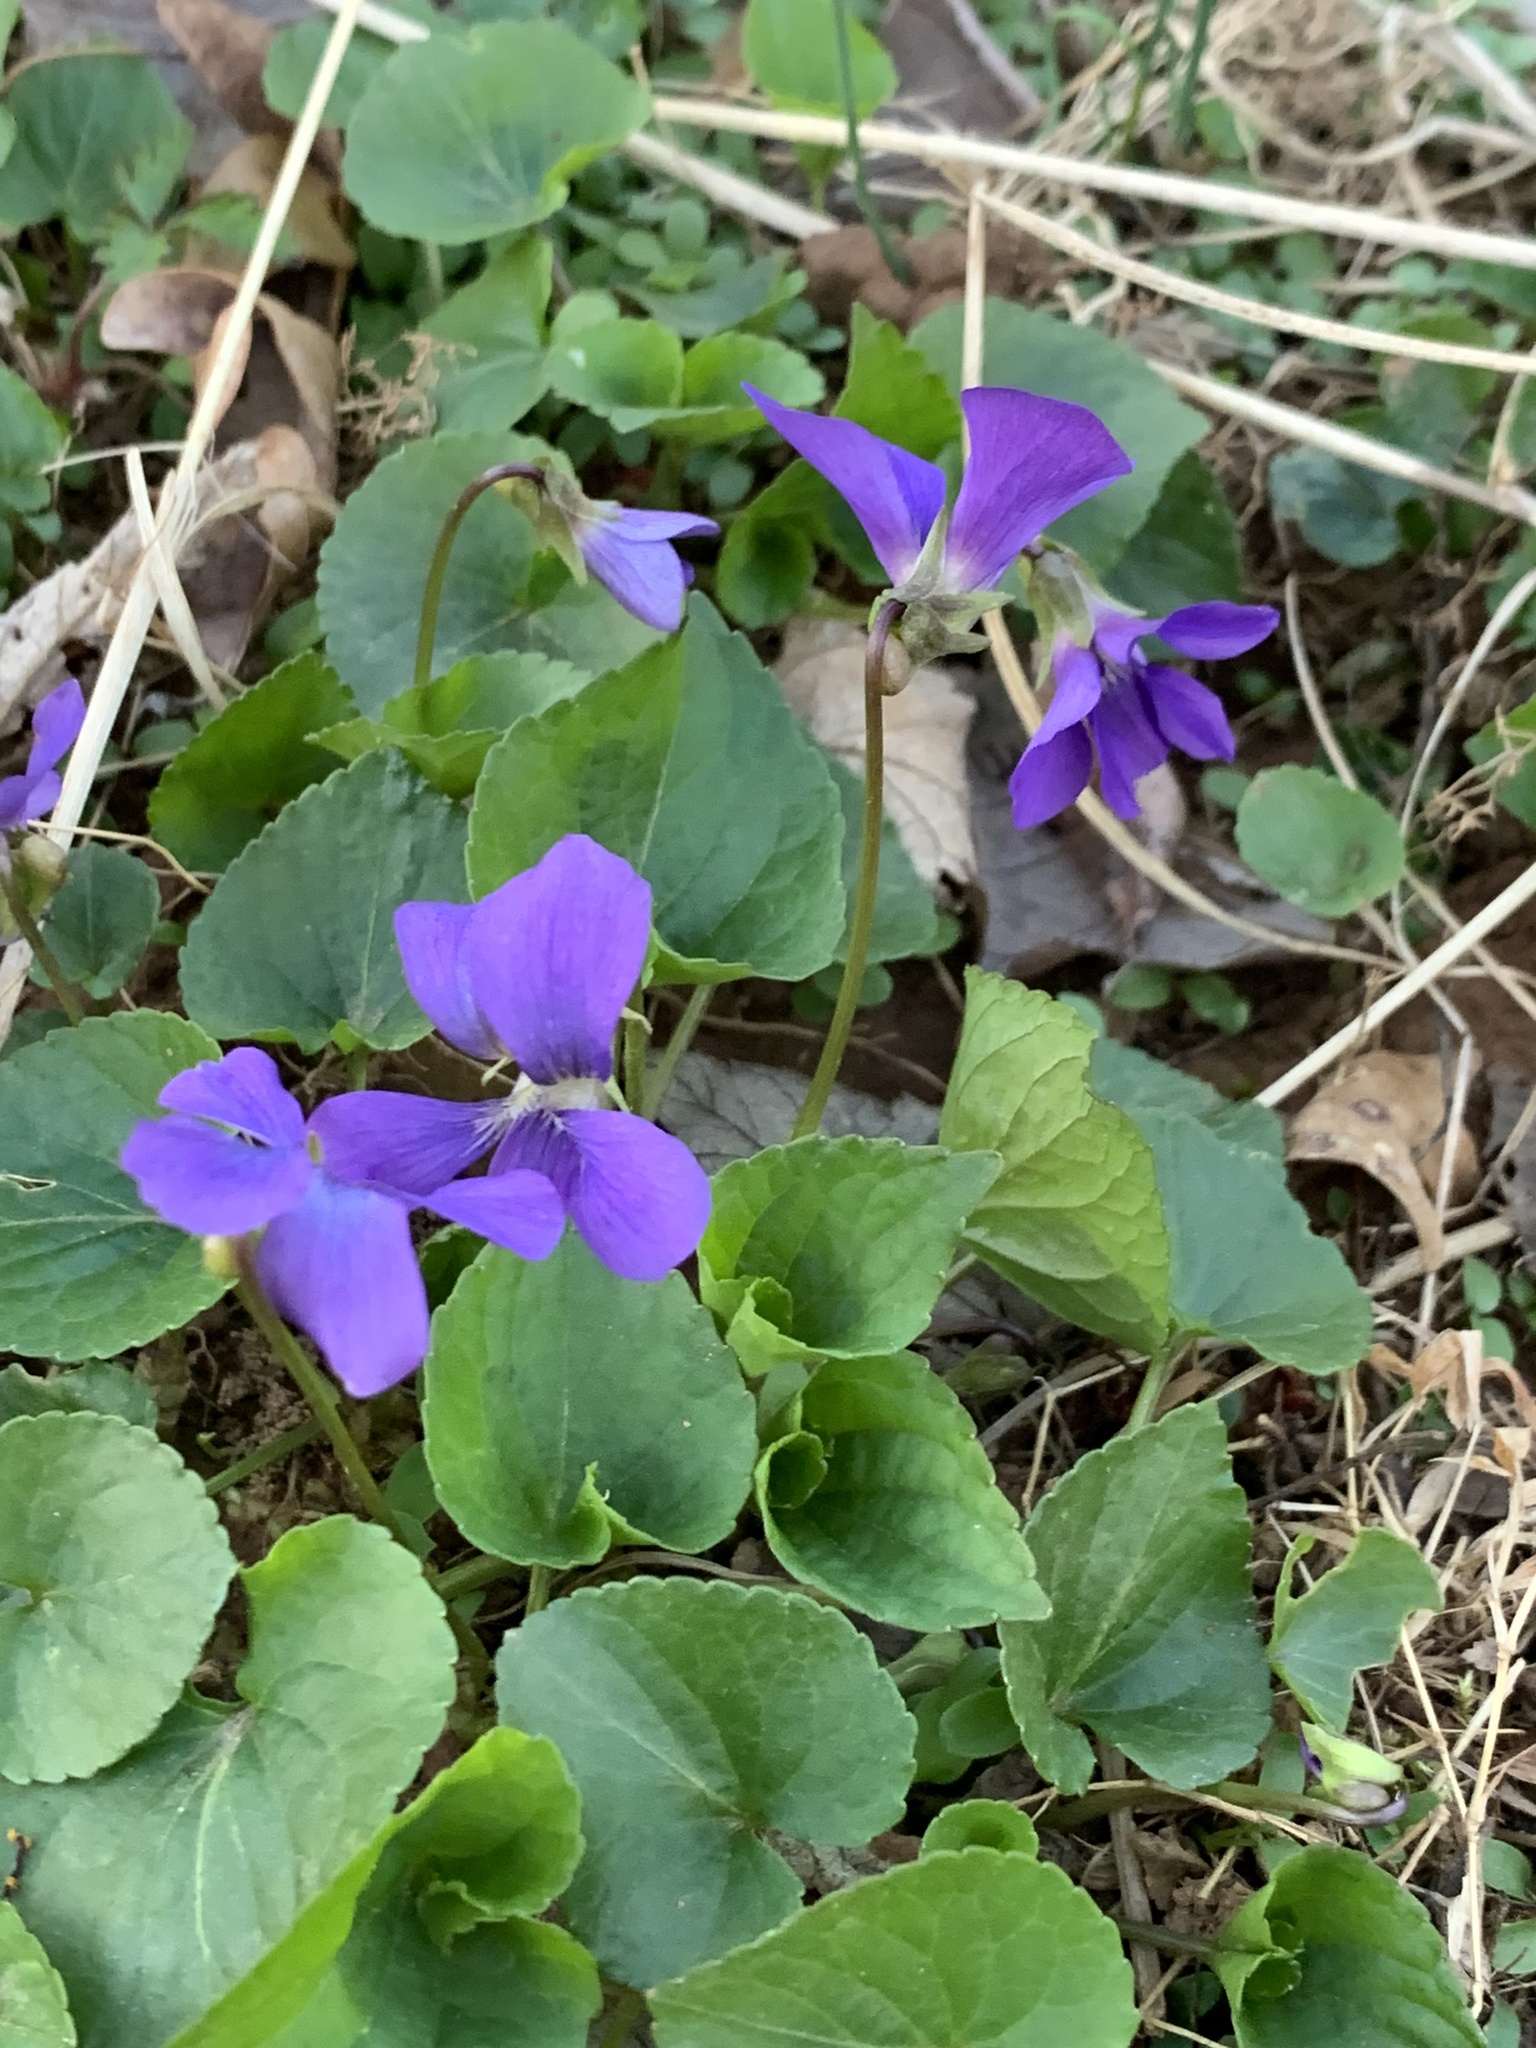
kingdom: Plantae
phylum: Tracheophyta
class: Magnoliopsida
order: Malpighiales
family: Violaceae
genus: Viola
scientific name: Viola sororia
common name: Dooryard violet
